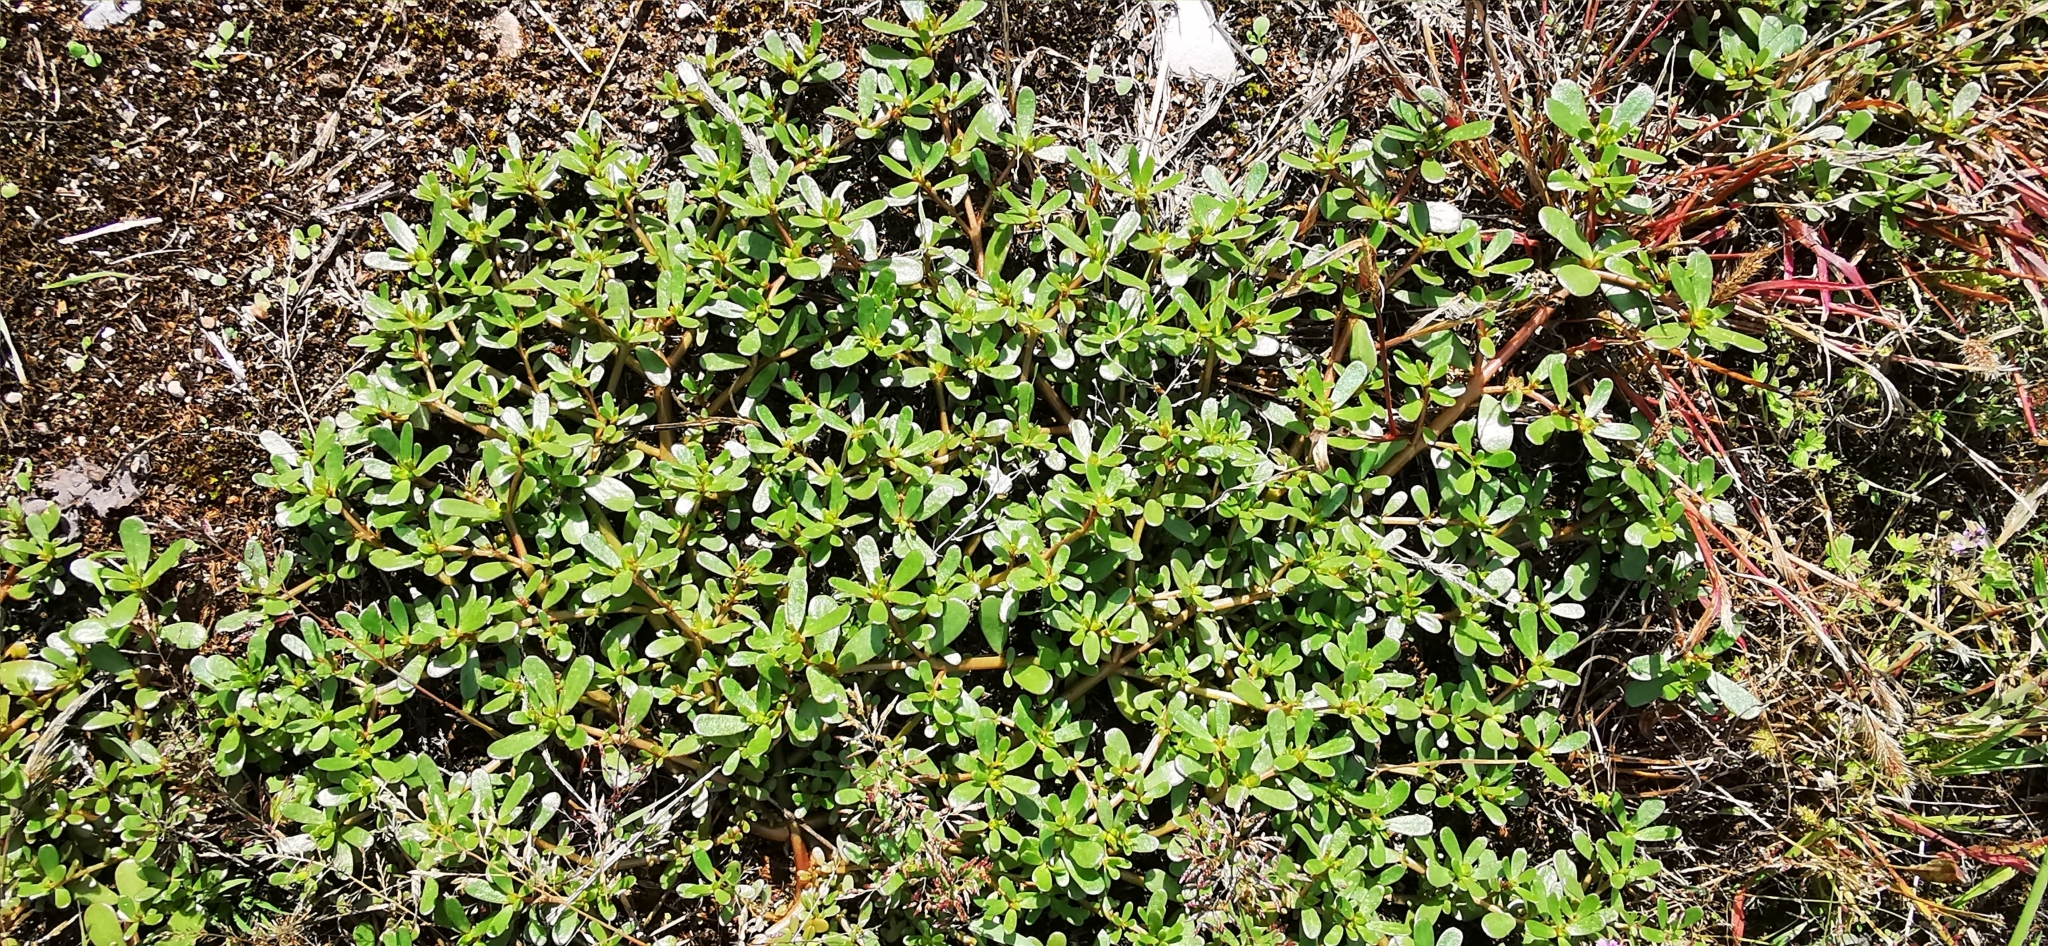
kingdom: Plantae
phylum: Tracheophyta
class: Magnoliopsida
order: Caryophyllales
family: Portulacaceae
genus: Portulaca
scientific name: Portulaca oleracea
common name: Common purslane
